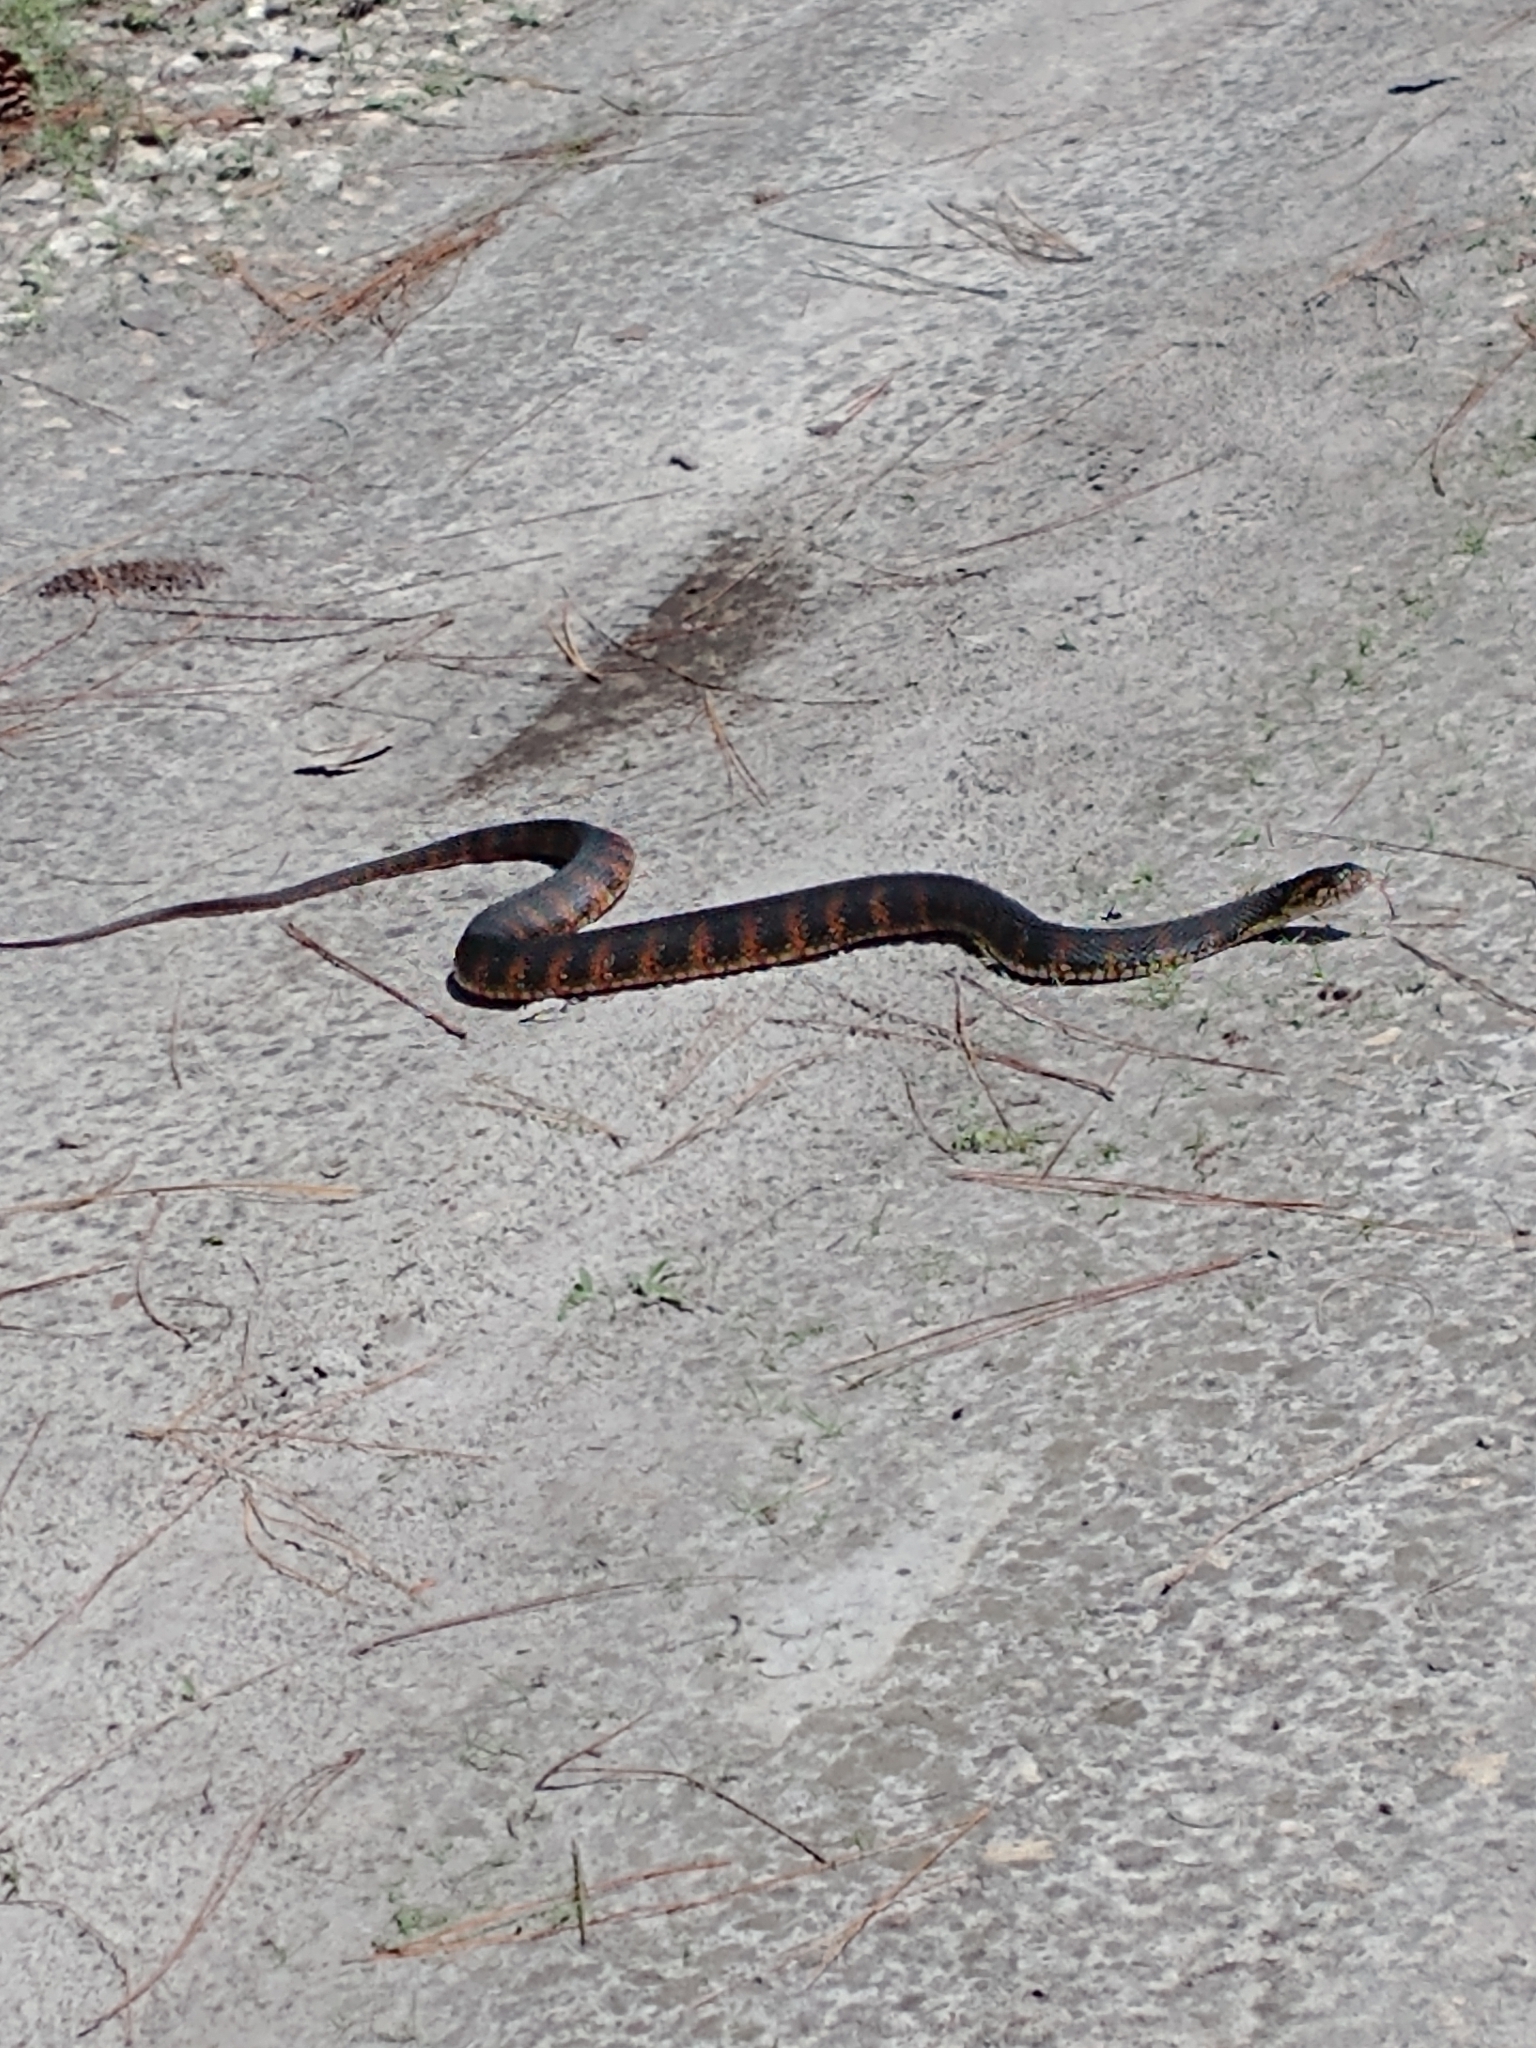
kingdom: Animalia
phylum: Chordata
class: Squamata
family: Colubridae
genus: Nerodia
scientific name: Nerodia fasciata
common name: Southern water snake
